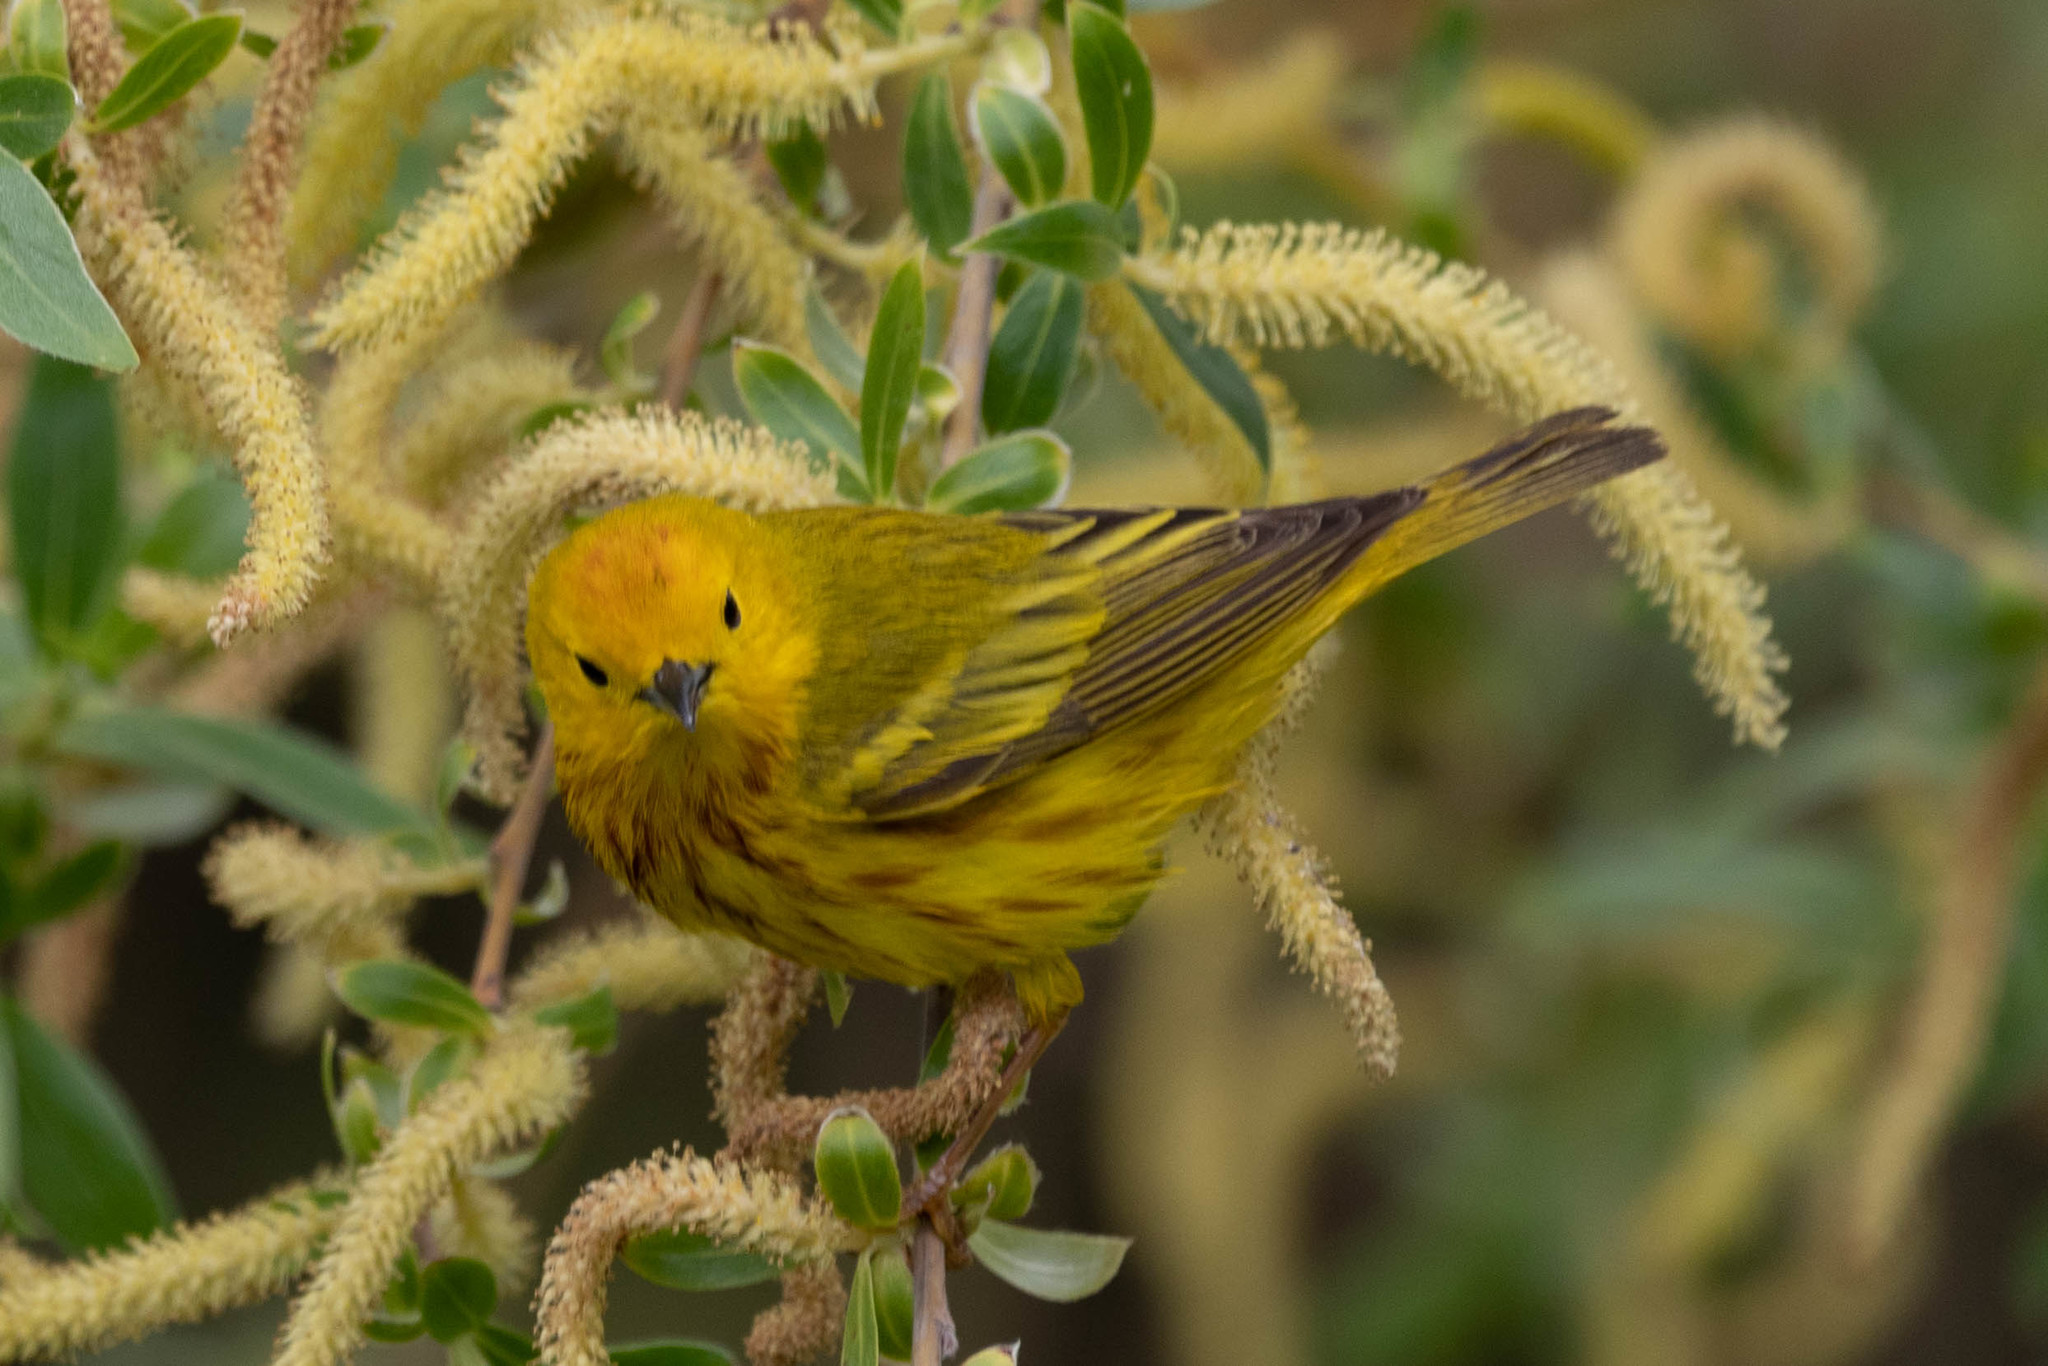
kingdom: Animalia
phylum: Chordata
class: Aves
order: Passeriformes
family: Parulidae
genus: Setophaga
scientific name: Setophaga petechia
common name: Yellow warbler
